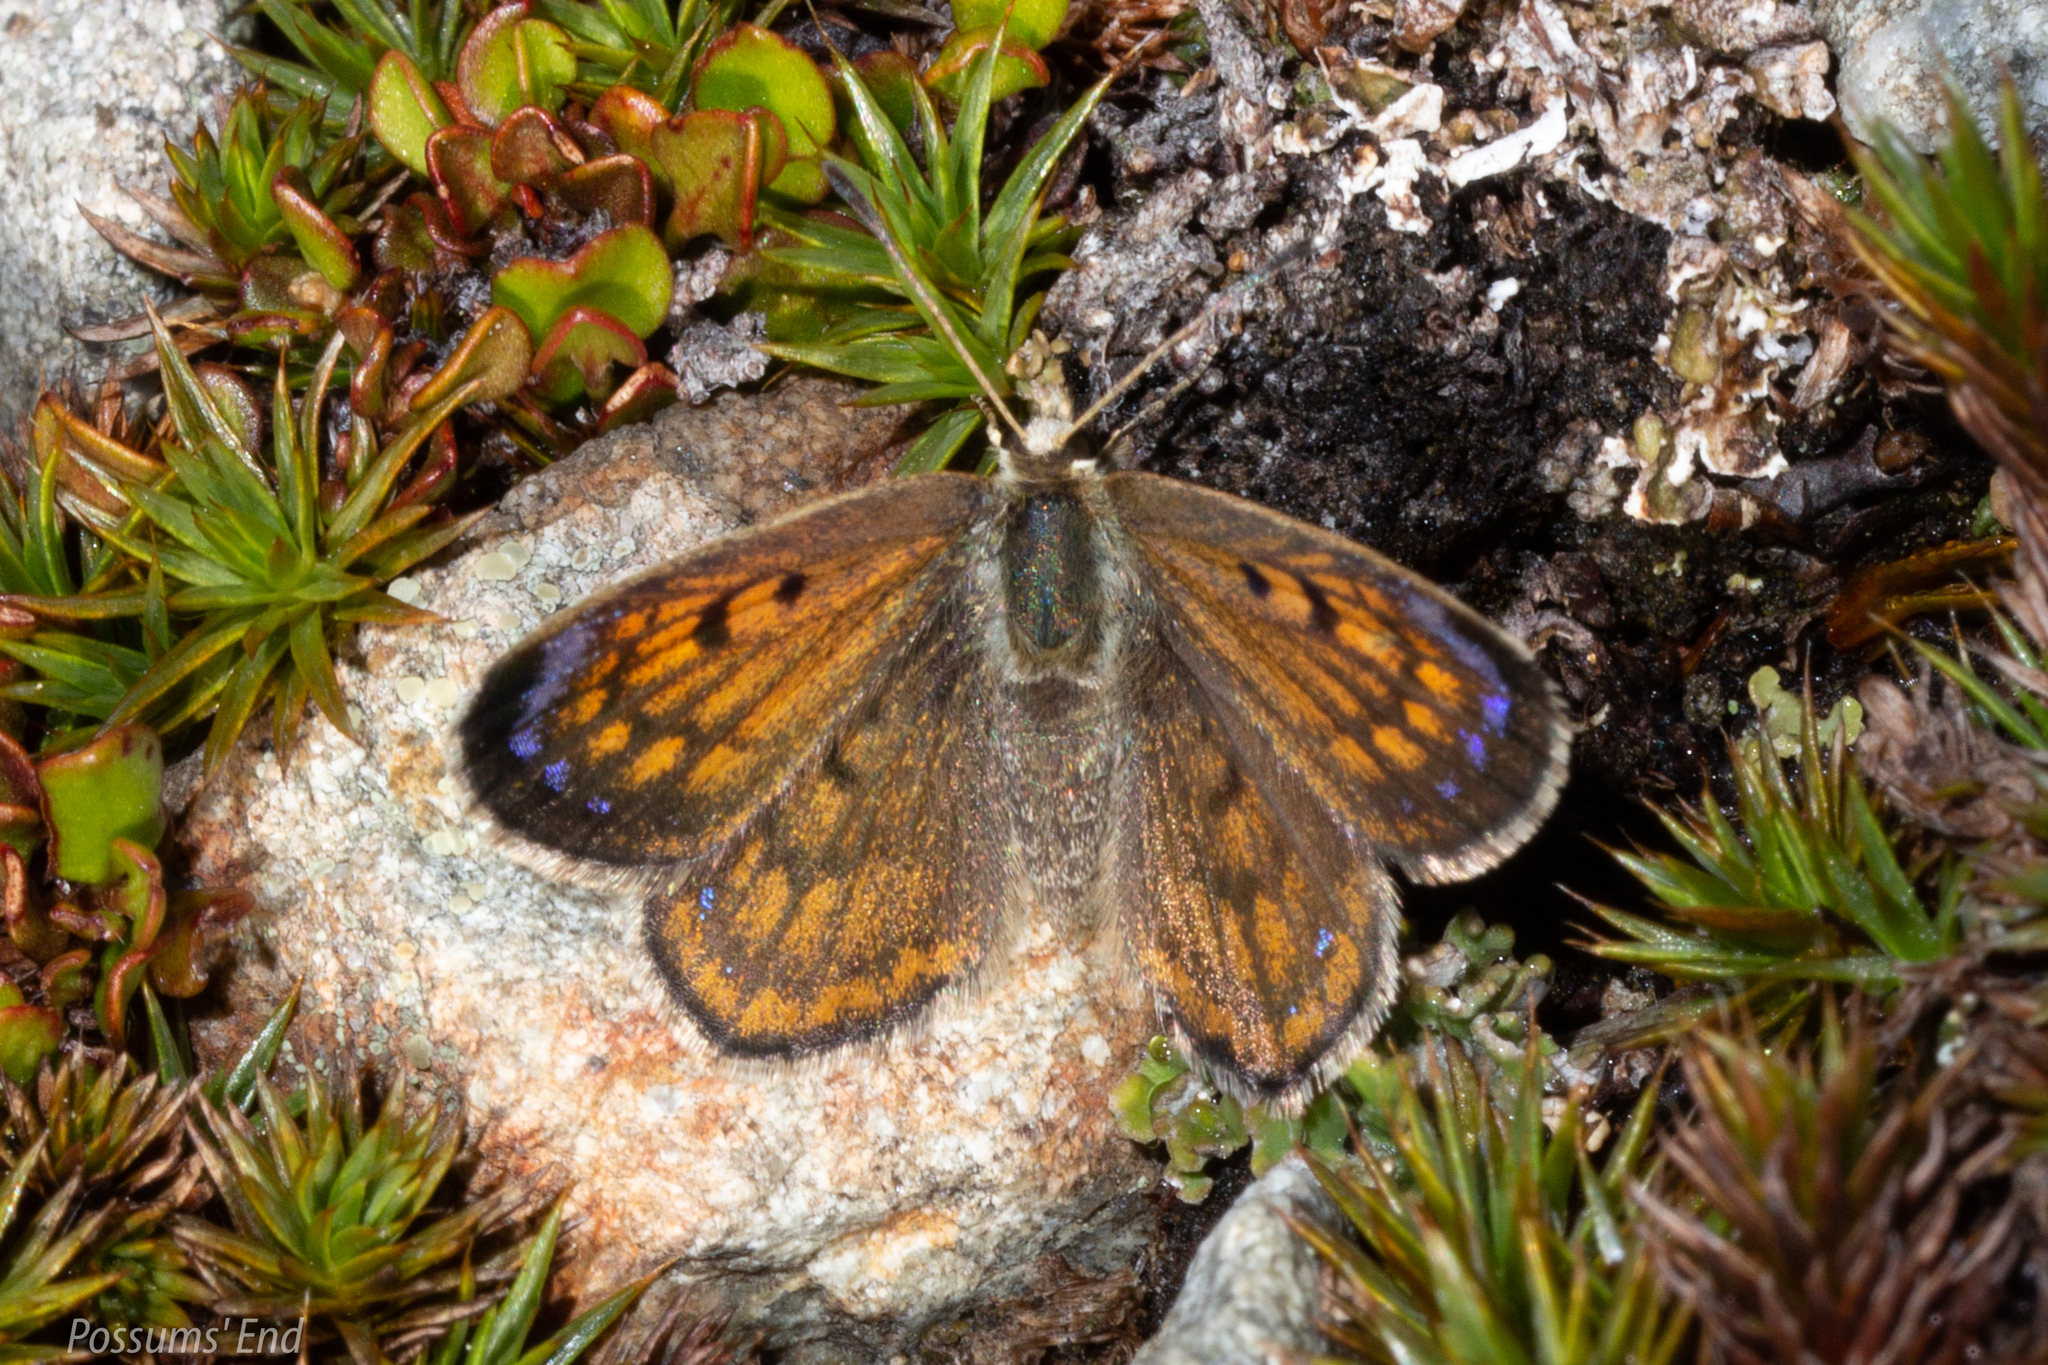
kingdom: Animalia
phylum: Arthropoda
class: Insecta
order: Lepidoptera
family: Lycaenidae
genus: Lycaena
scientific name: Lycaena boldenarum
